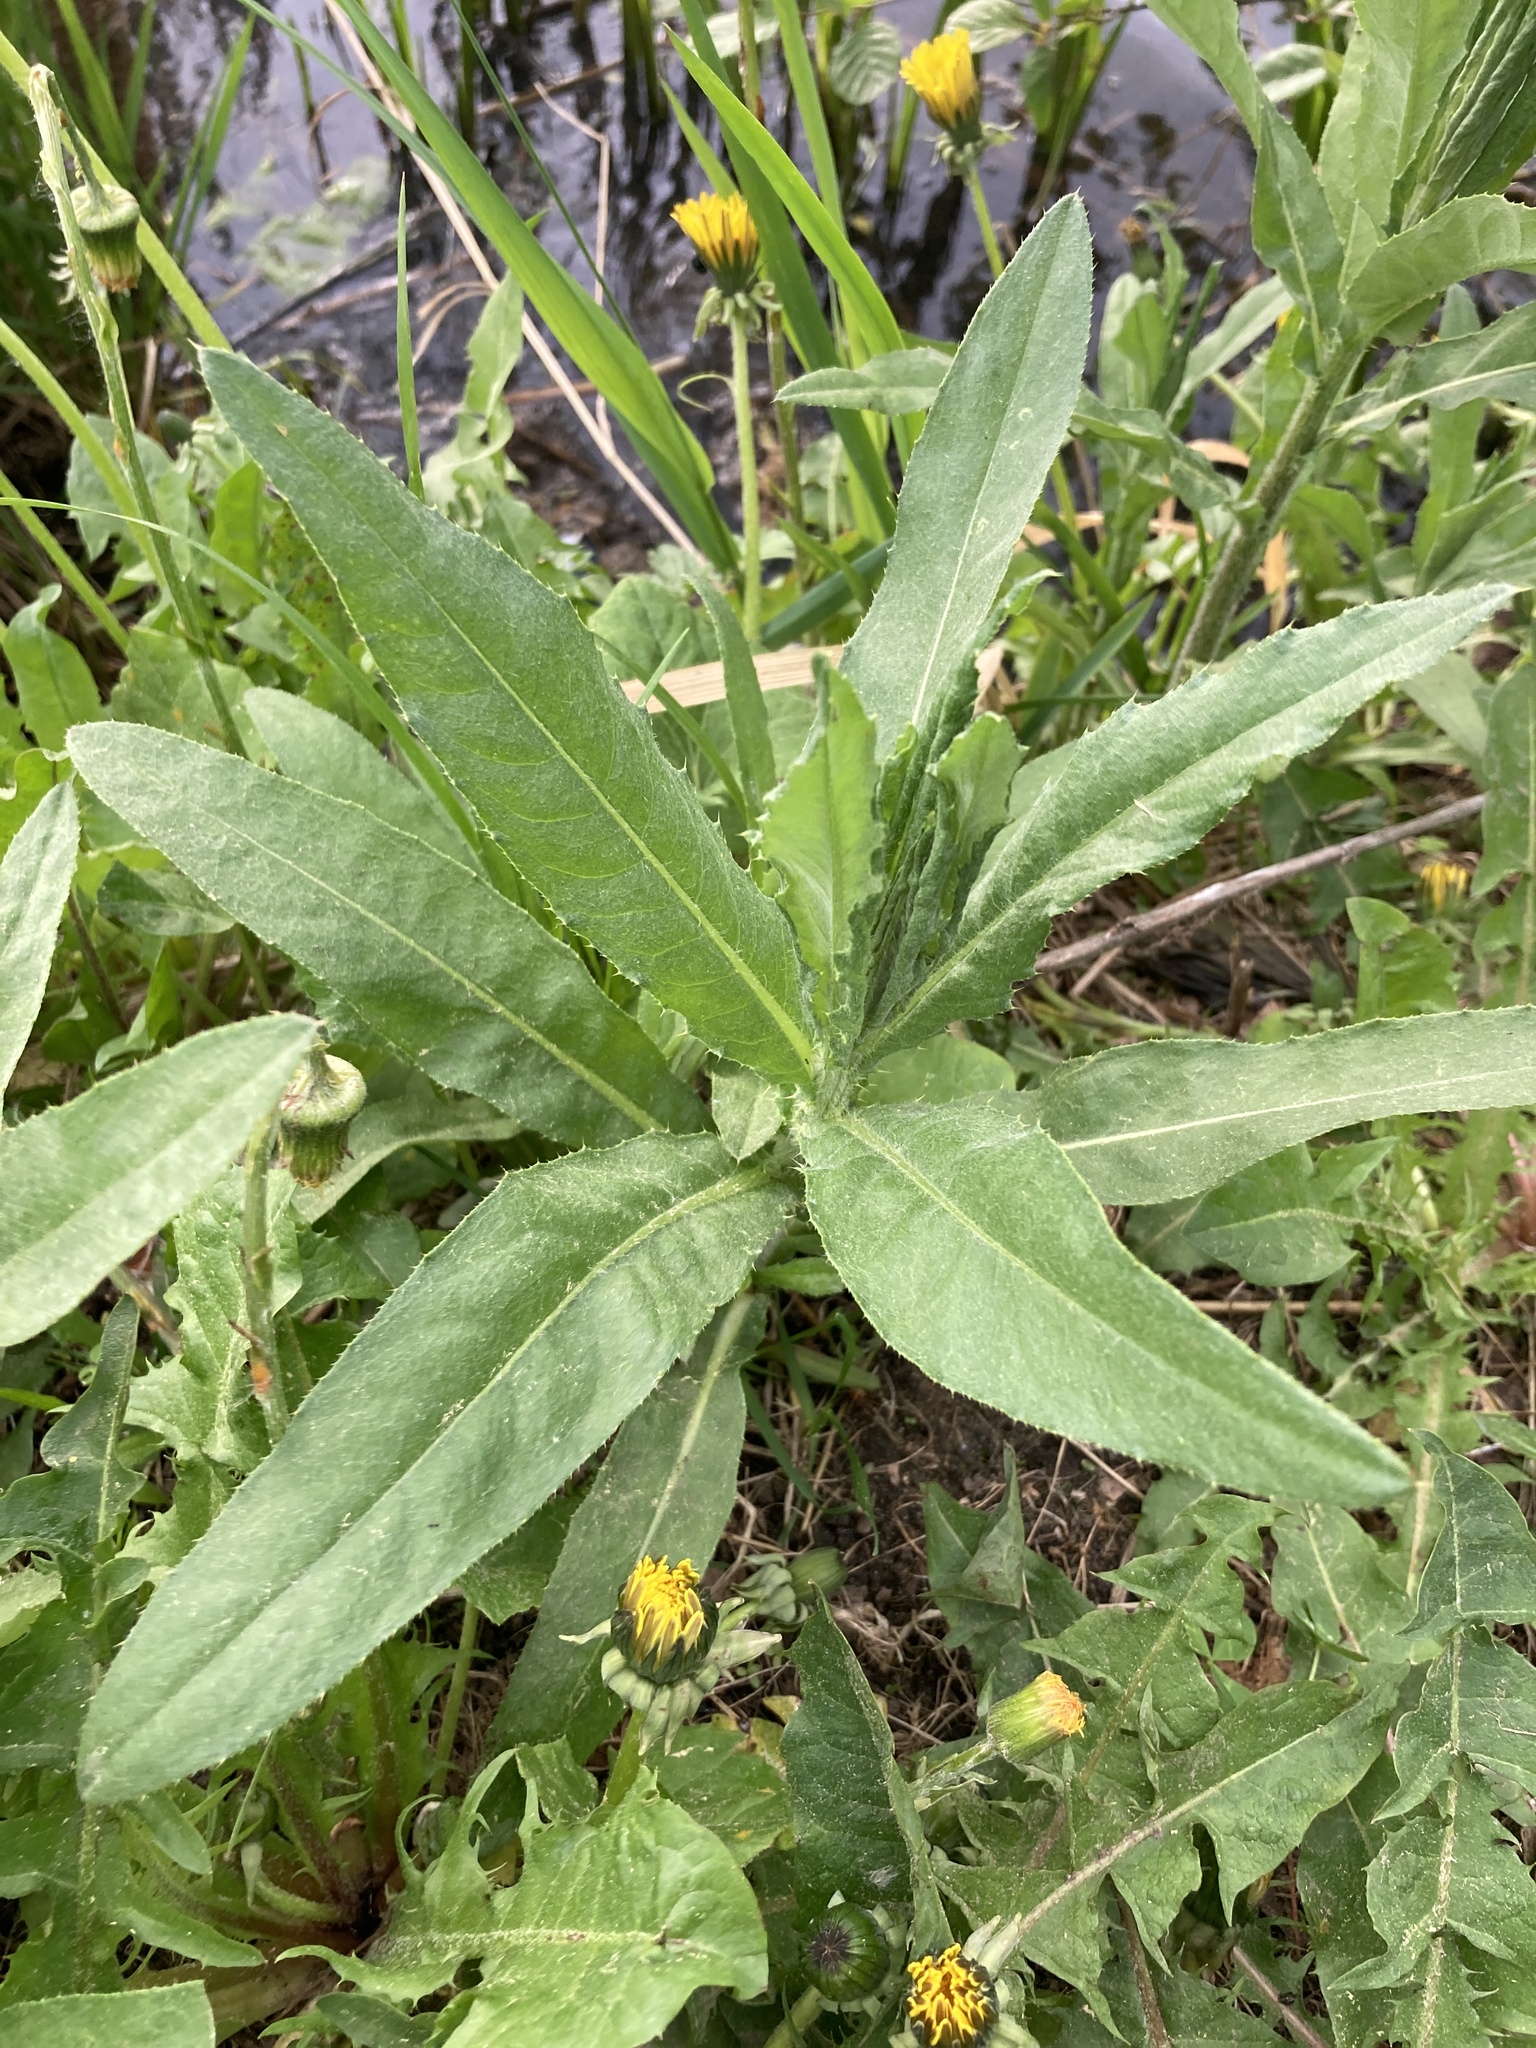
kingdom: Plantae
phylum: Tracheophyta
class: Magnoliopsida
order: Asterales
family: Asteraceae
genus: Cirsium
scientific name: Cirsium arvense
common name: Creeping thistle
